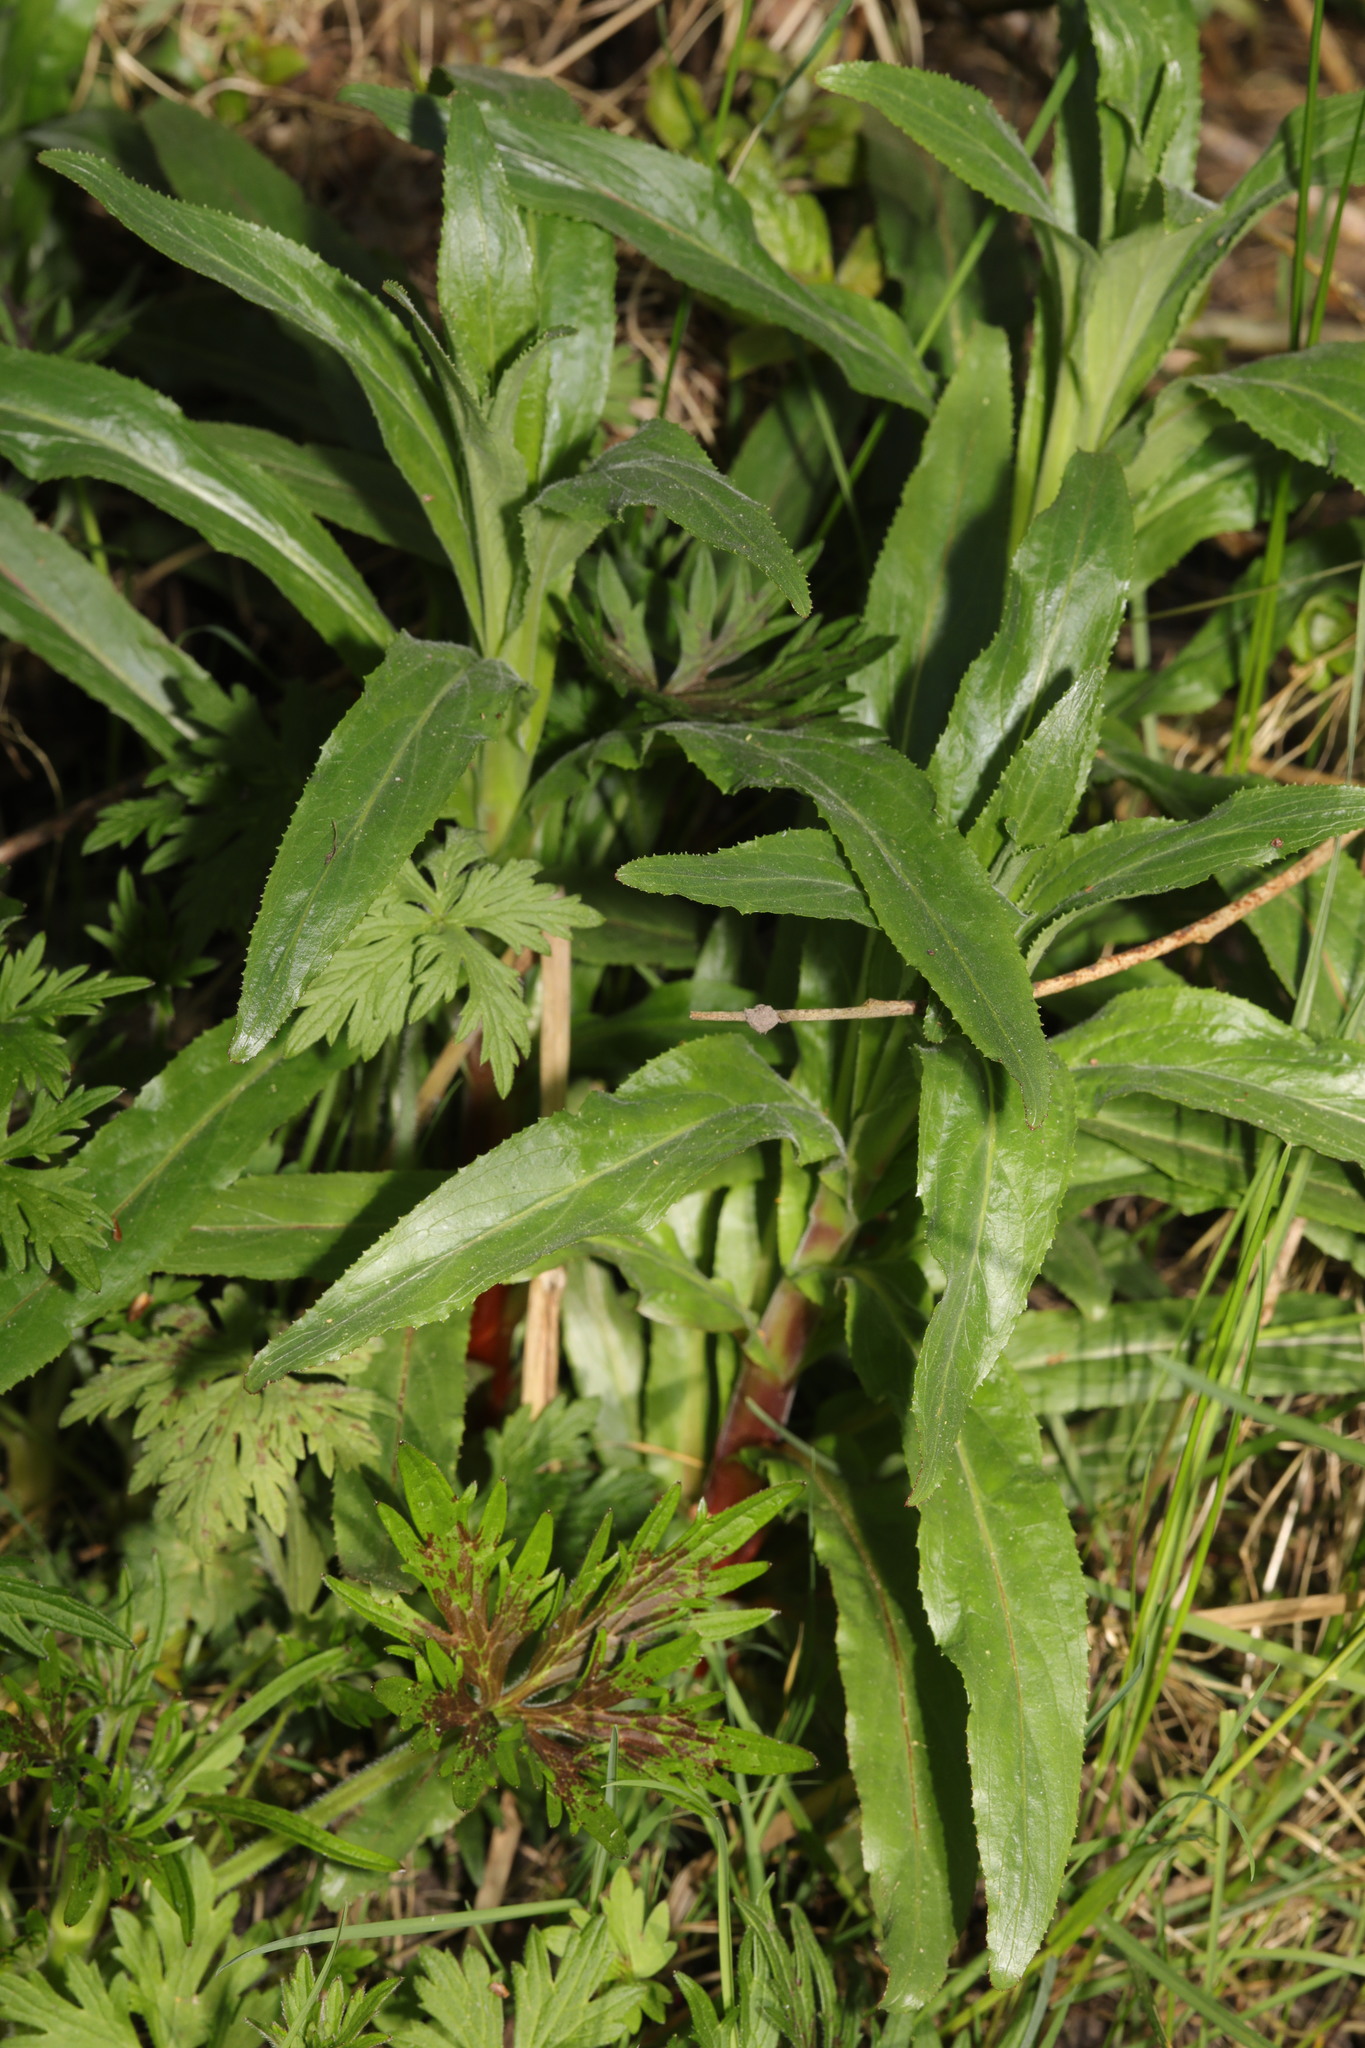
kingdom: Plantae
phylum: Tracheophyta
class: Magnoliopsida
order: Myrtales
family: Onagraceae
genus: Epilobium
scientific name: Epilobium hirsutum
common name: Great willowherb
